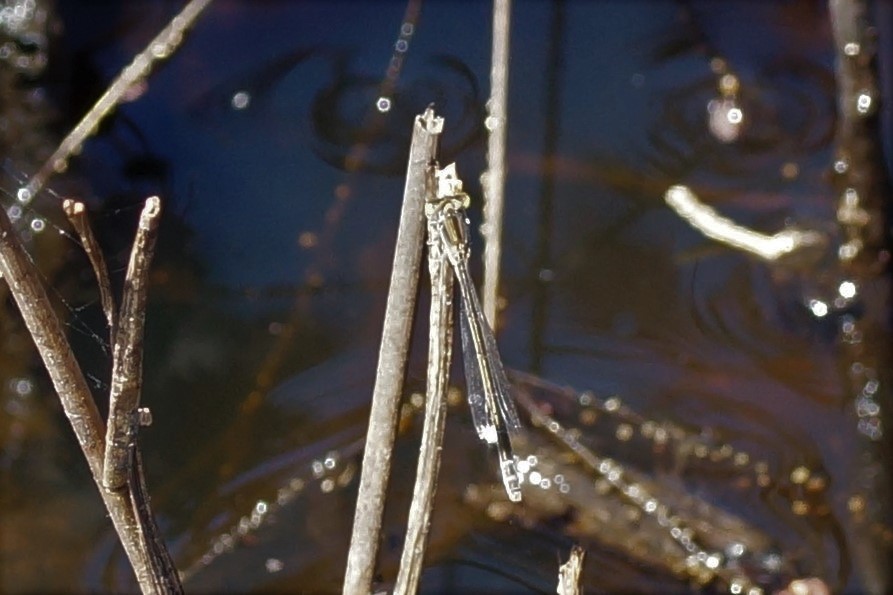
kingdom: Animalia
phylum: Arthropoda
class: Insecta
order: Odonata
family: Coenagrionidae
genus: Ischnura
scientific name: Ischnura aurora
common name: Gossamer damselfly
